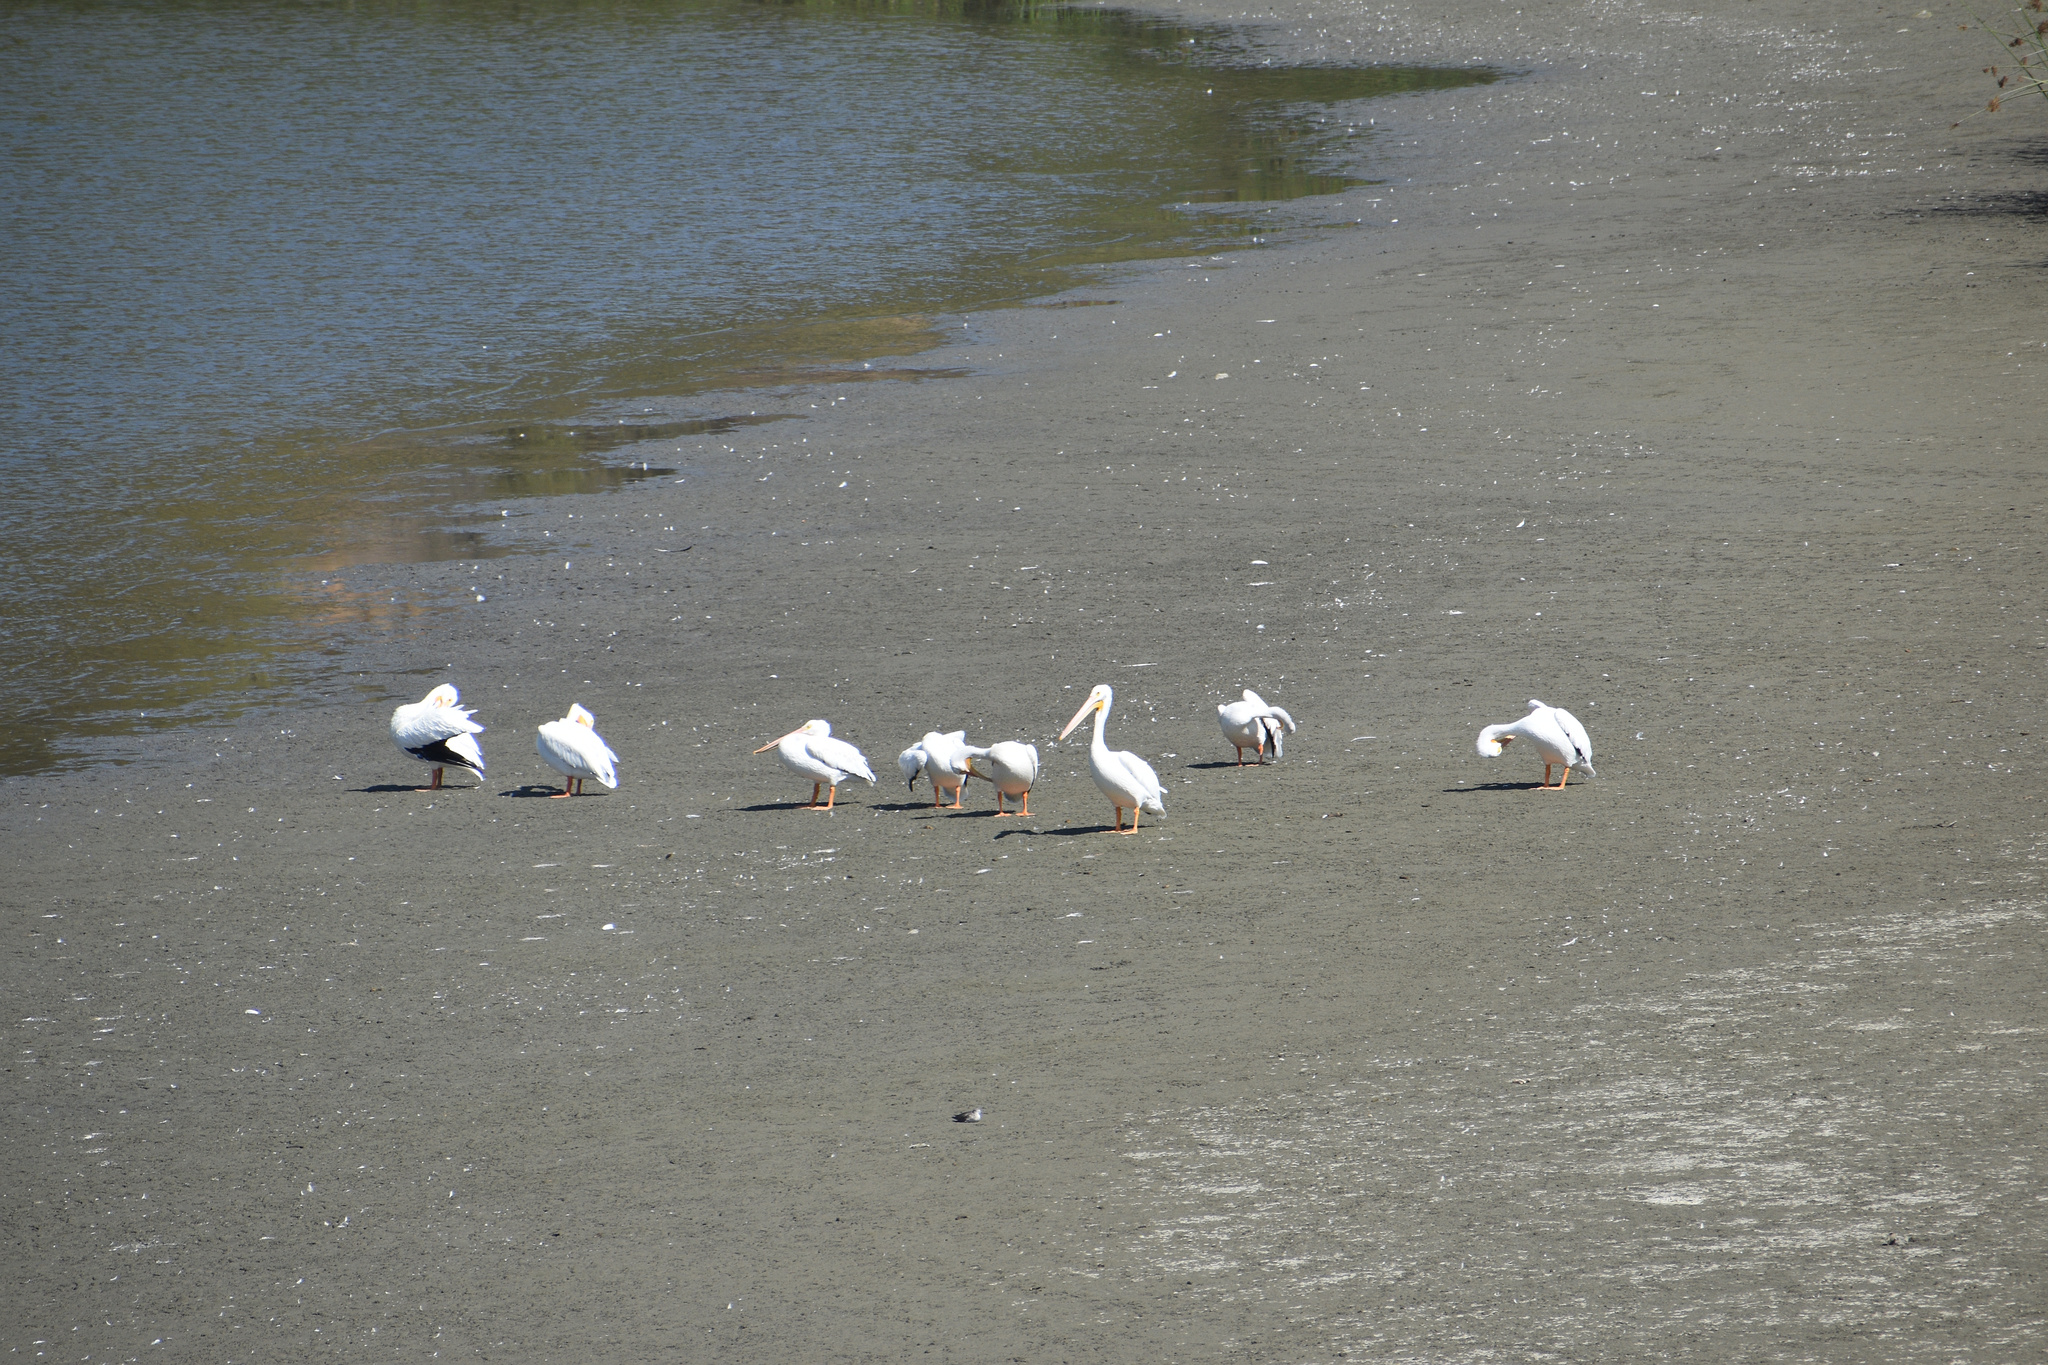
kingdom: Animalia
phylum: Chordata
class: Aves
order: Pelecaniformes
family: Pelecanidae
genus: Pelecanus
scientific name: Pelecanus erythrorhynchos
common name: American white pelican
